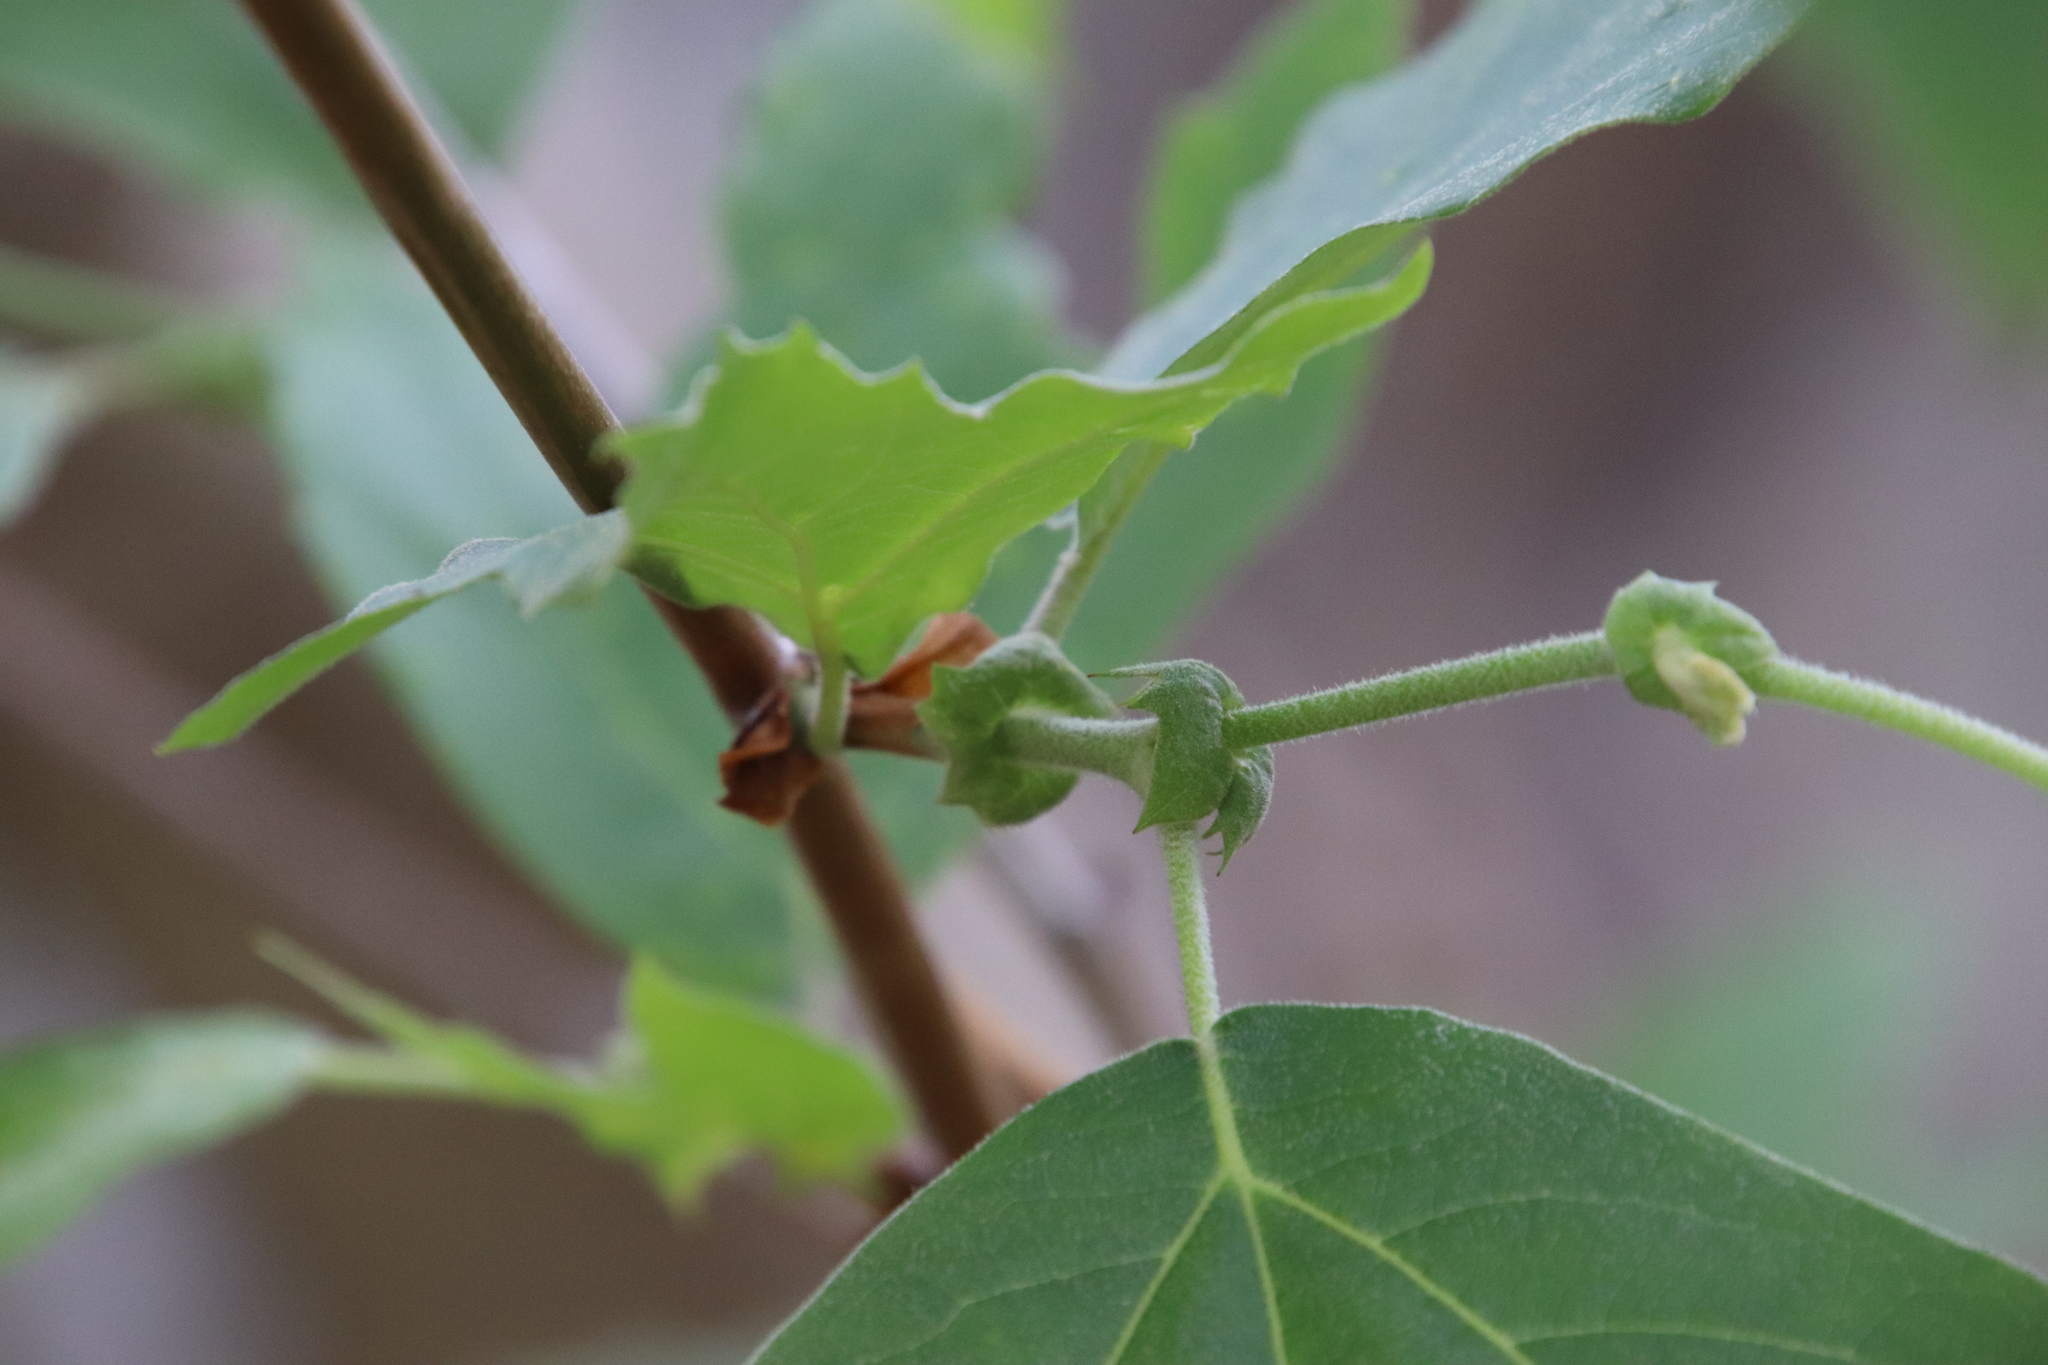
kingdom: Plantae
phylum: Tracheophyta
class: Magnoliopsida
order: Proteales
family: Platanaceae
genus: Platanus
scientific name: Platanus racemosa
